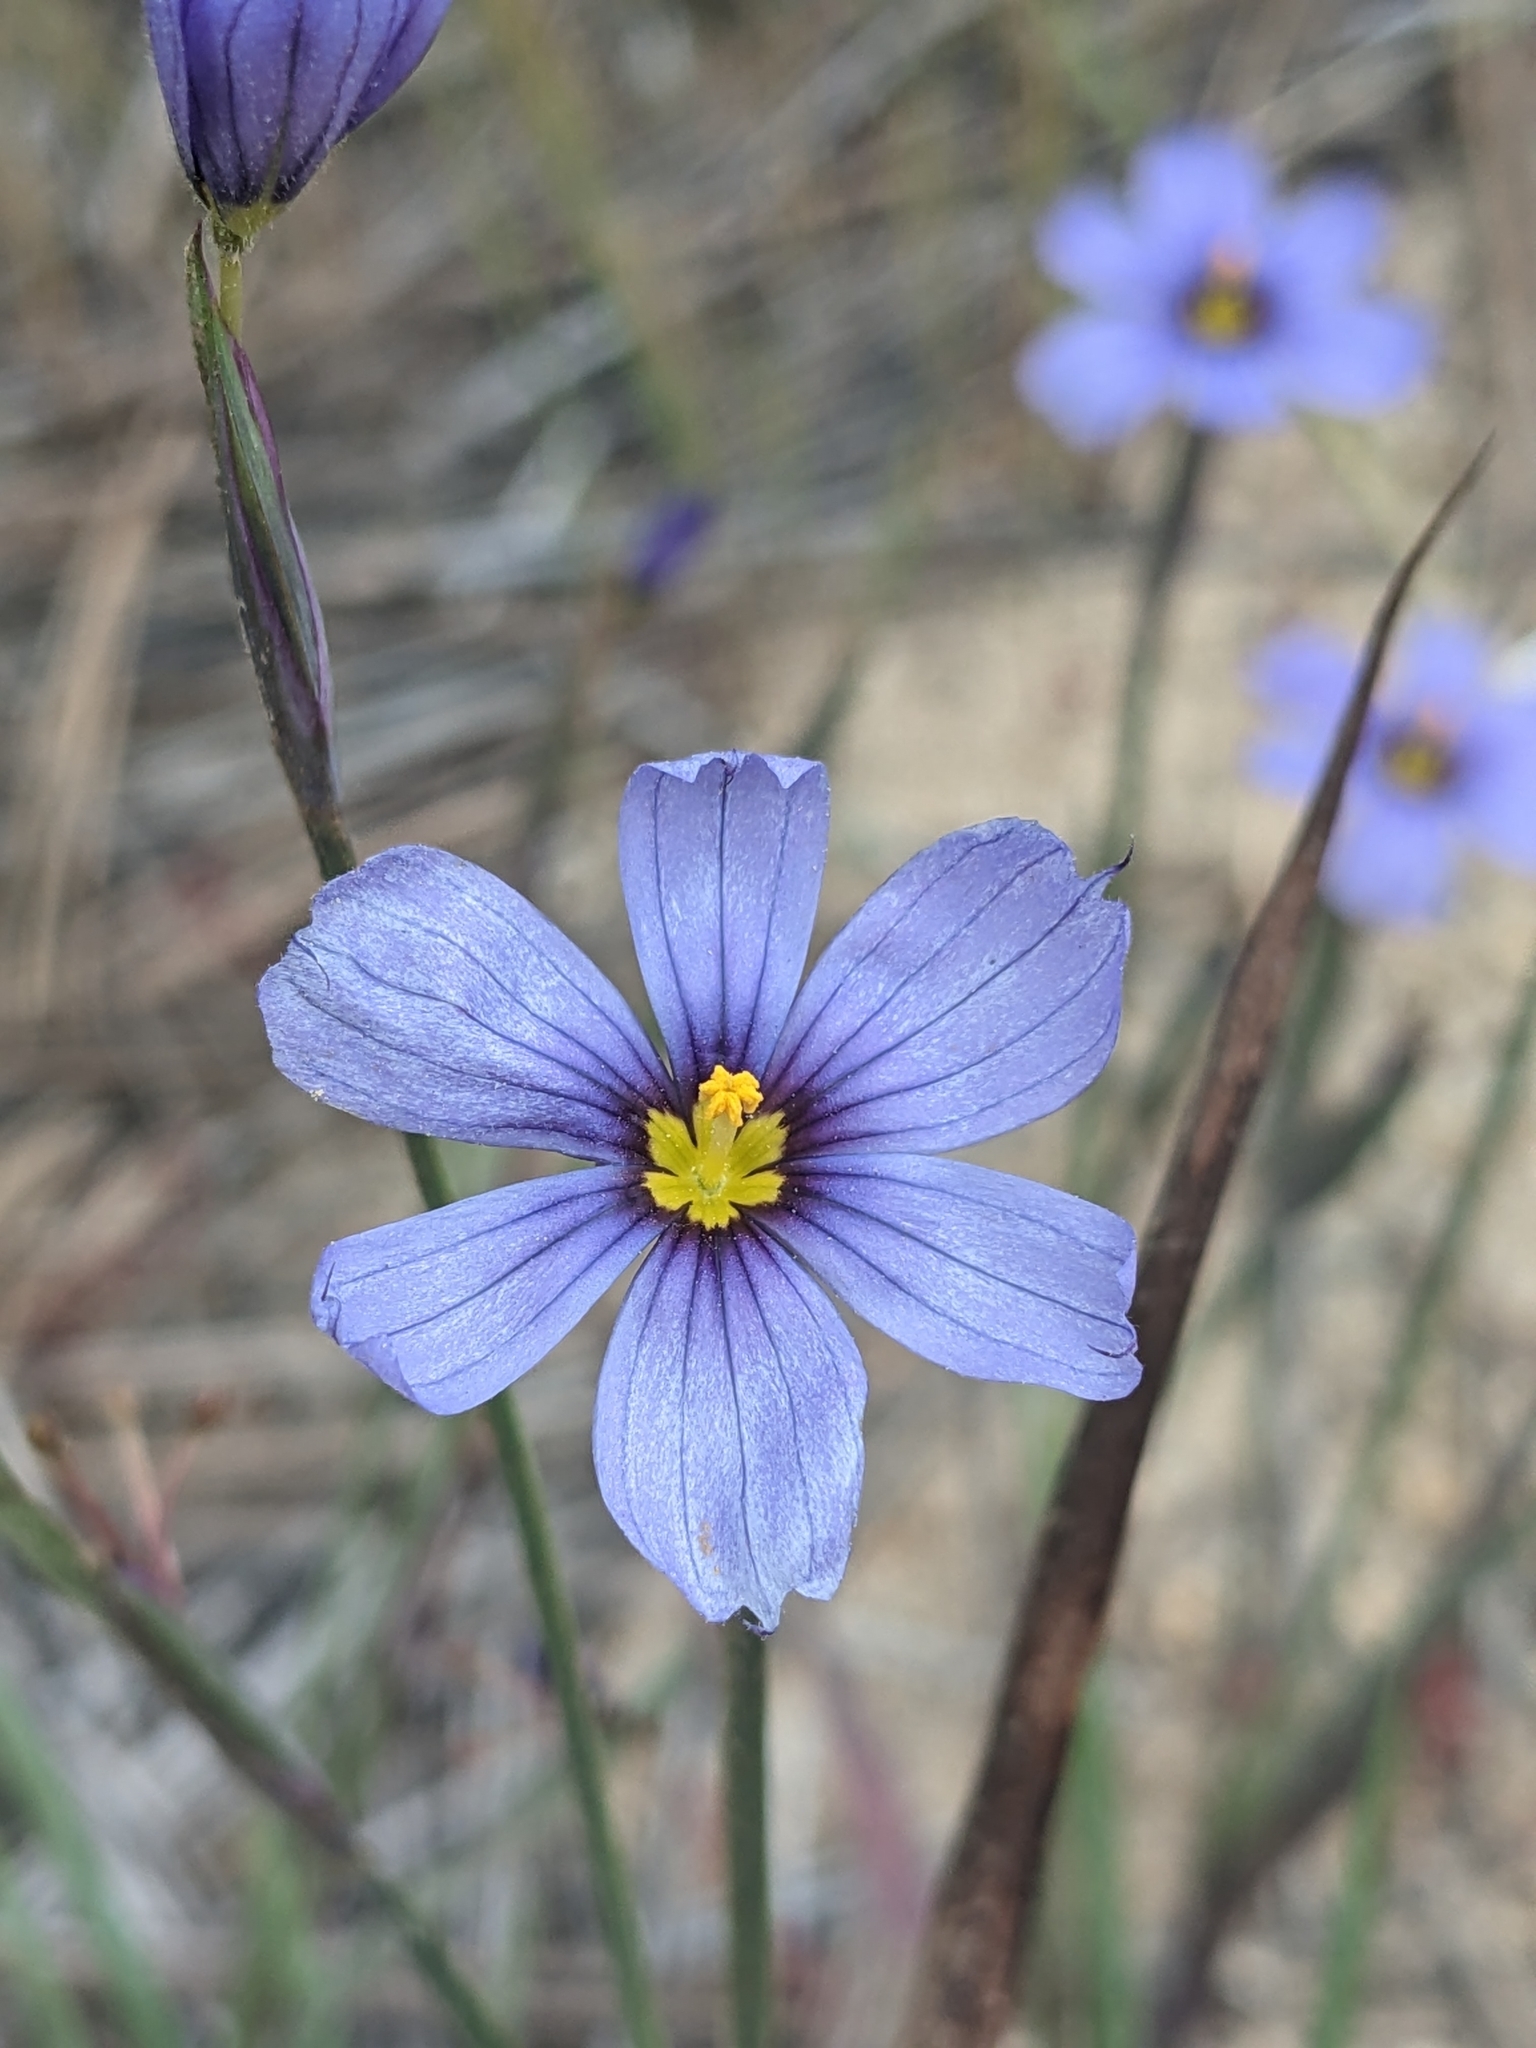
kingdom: Plantae
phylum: Tracheophyta
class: Liliopsida
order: Asparagales
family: Iridaceae
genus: Sisyrinchium
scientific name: Sisyrinchium bellum
